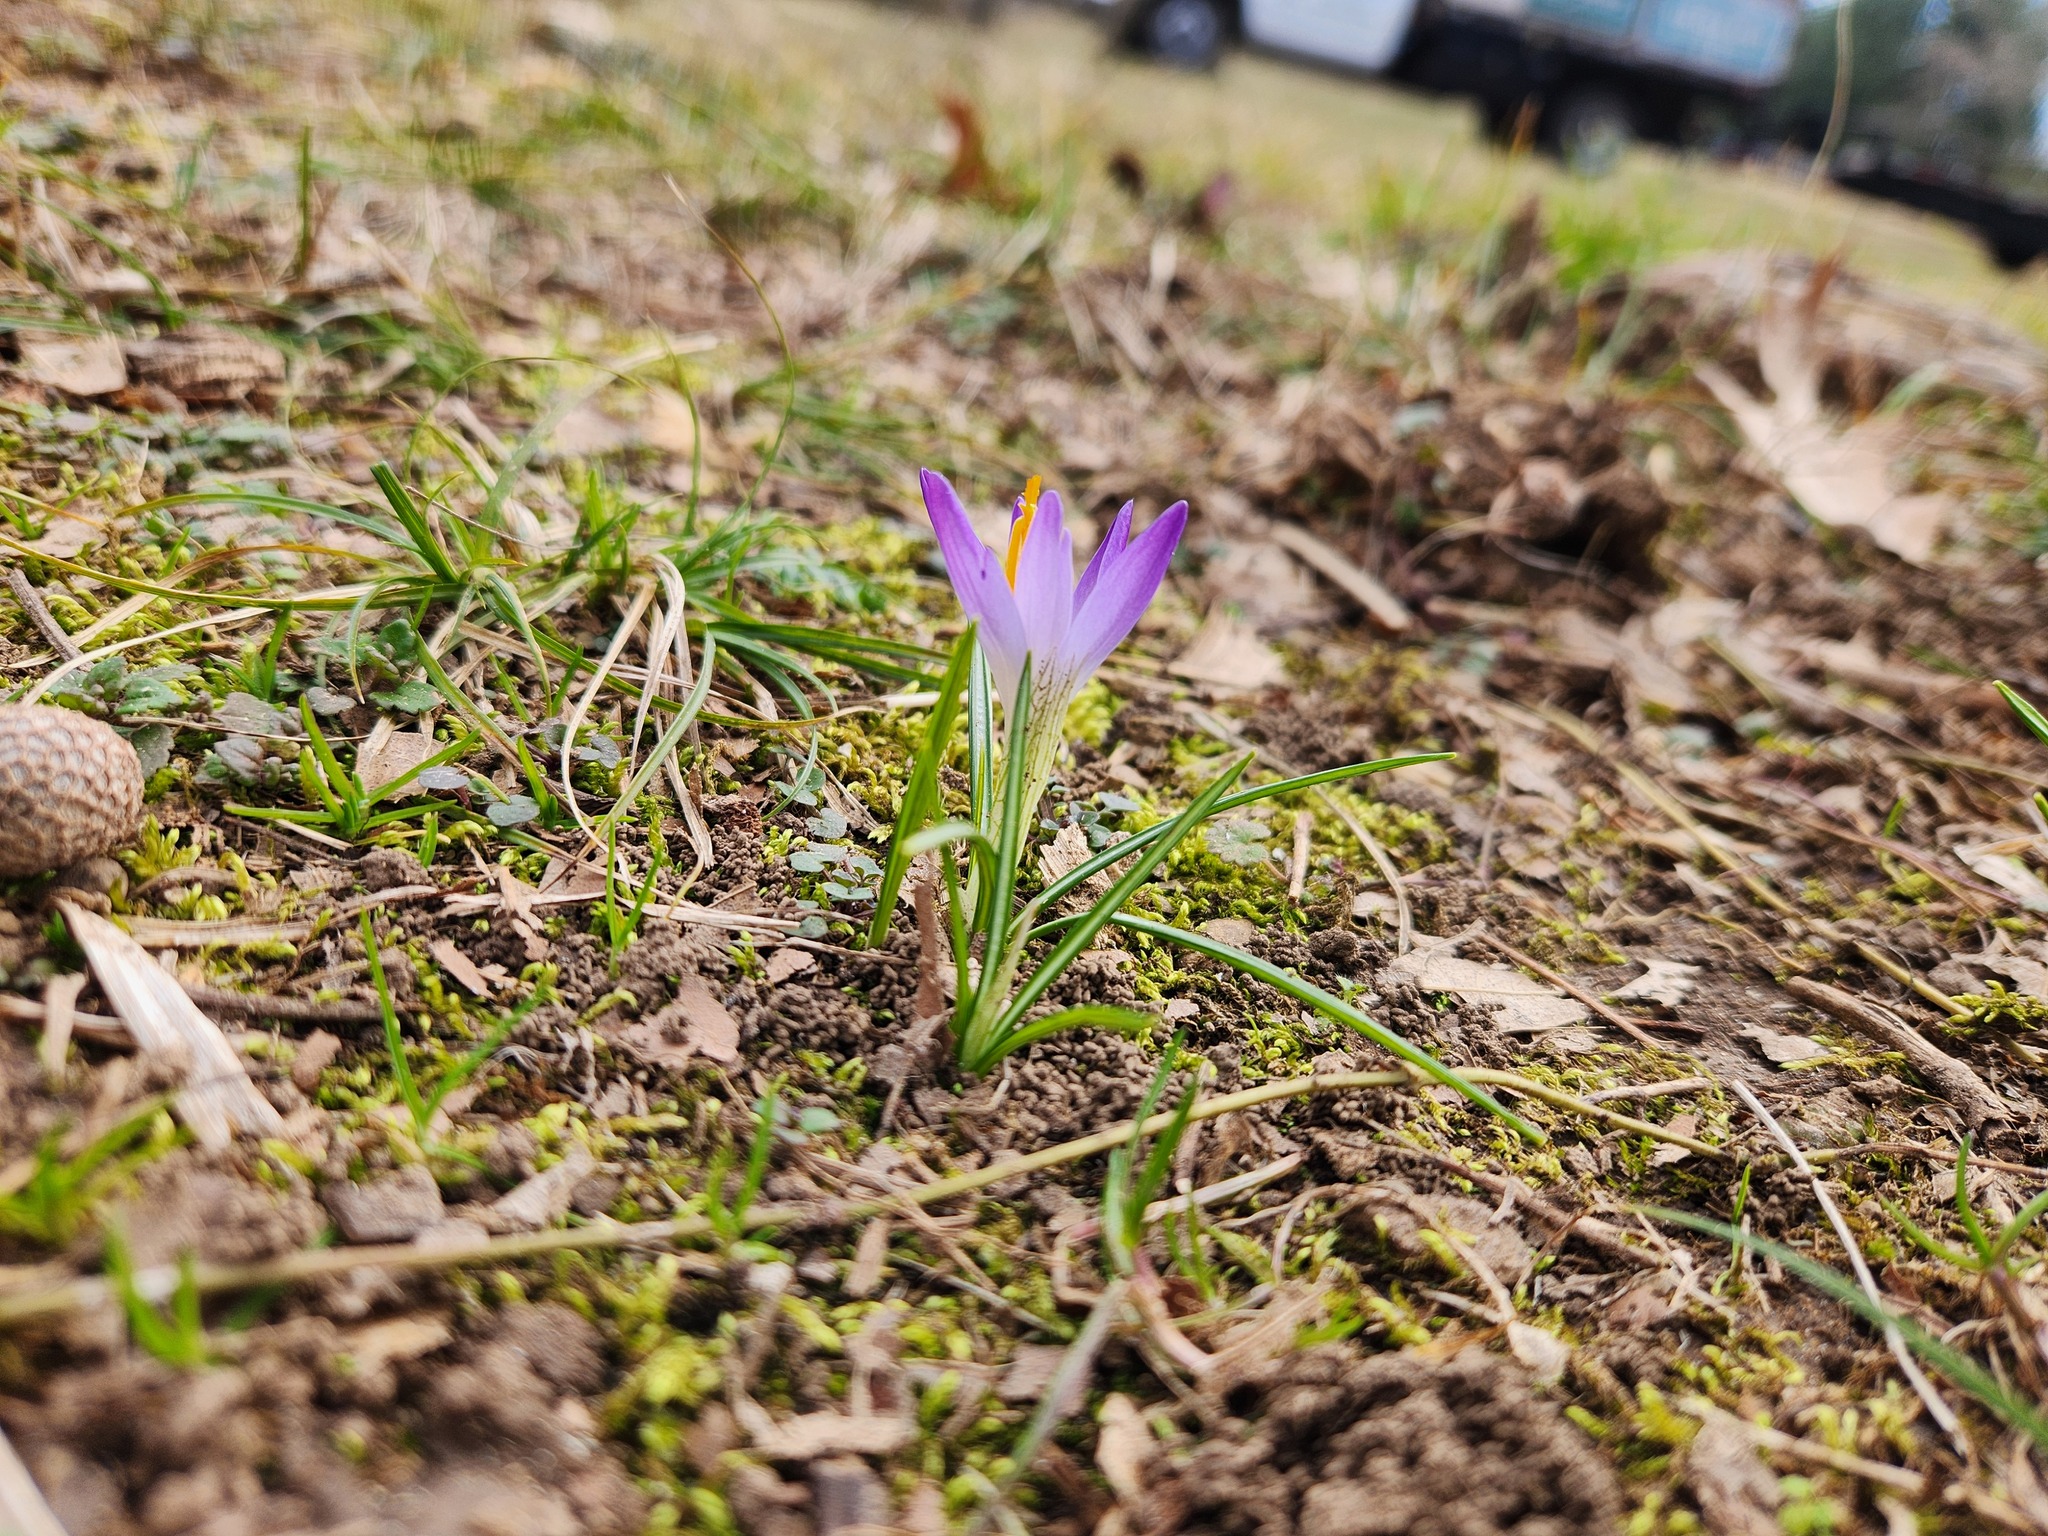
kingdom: Plantae
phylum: Tracheophyta
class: Liliopsida
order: Asparagales
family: Iridaceae
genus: Crocus
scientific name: Crocus tommasinianus
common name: Early crocus
